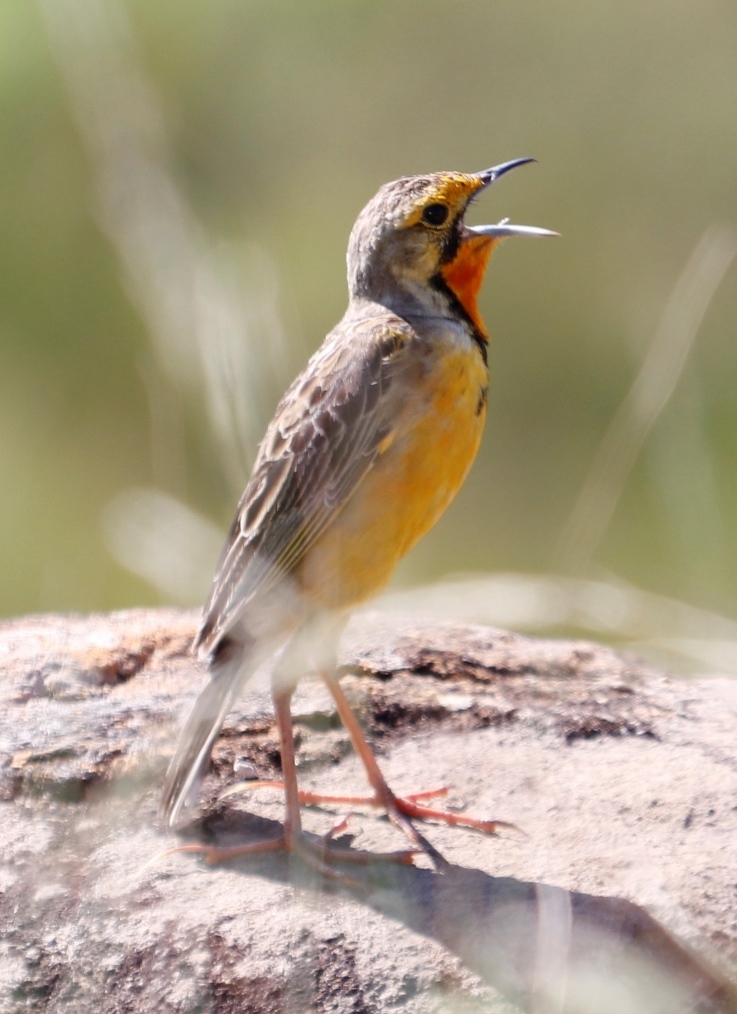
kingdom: Animalia
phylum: Chordata
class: Aves
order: Passeriformes
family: Motacillidae
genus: Macronyx
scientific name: Macronyx capensis
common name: Cape longclaw
